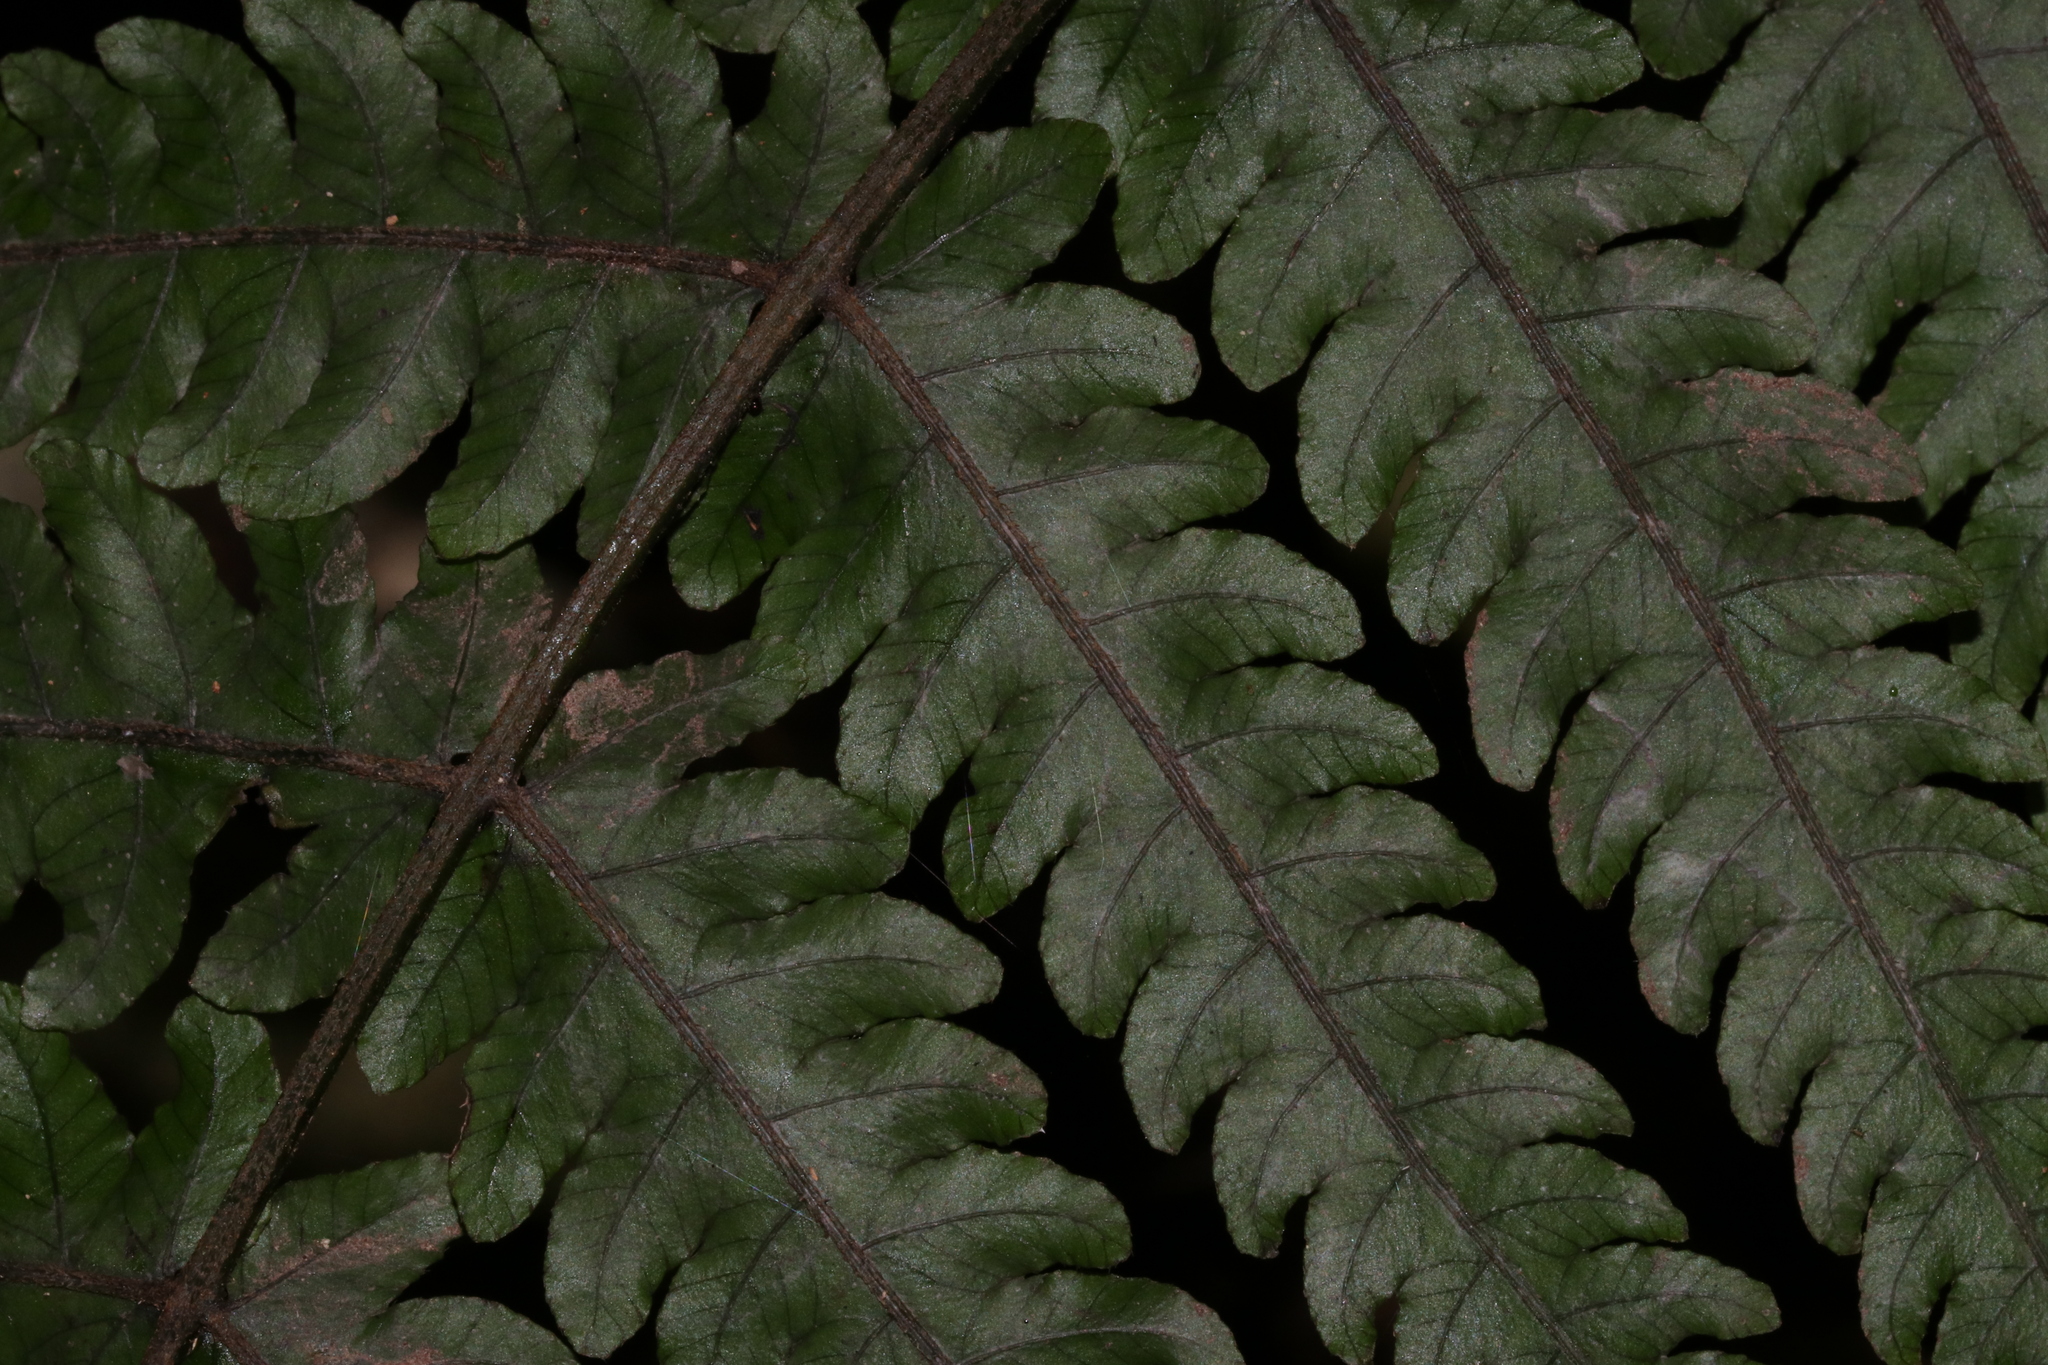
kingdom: Plantae
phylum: Tracheophyta
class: Polypodiopsida
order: Polypodiales
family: Thelypteridaceae
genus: Pakau
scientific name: Pakau pennigera
